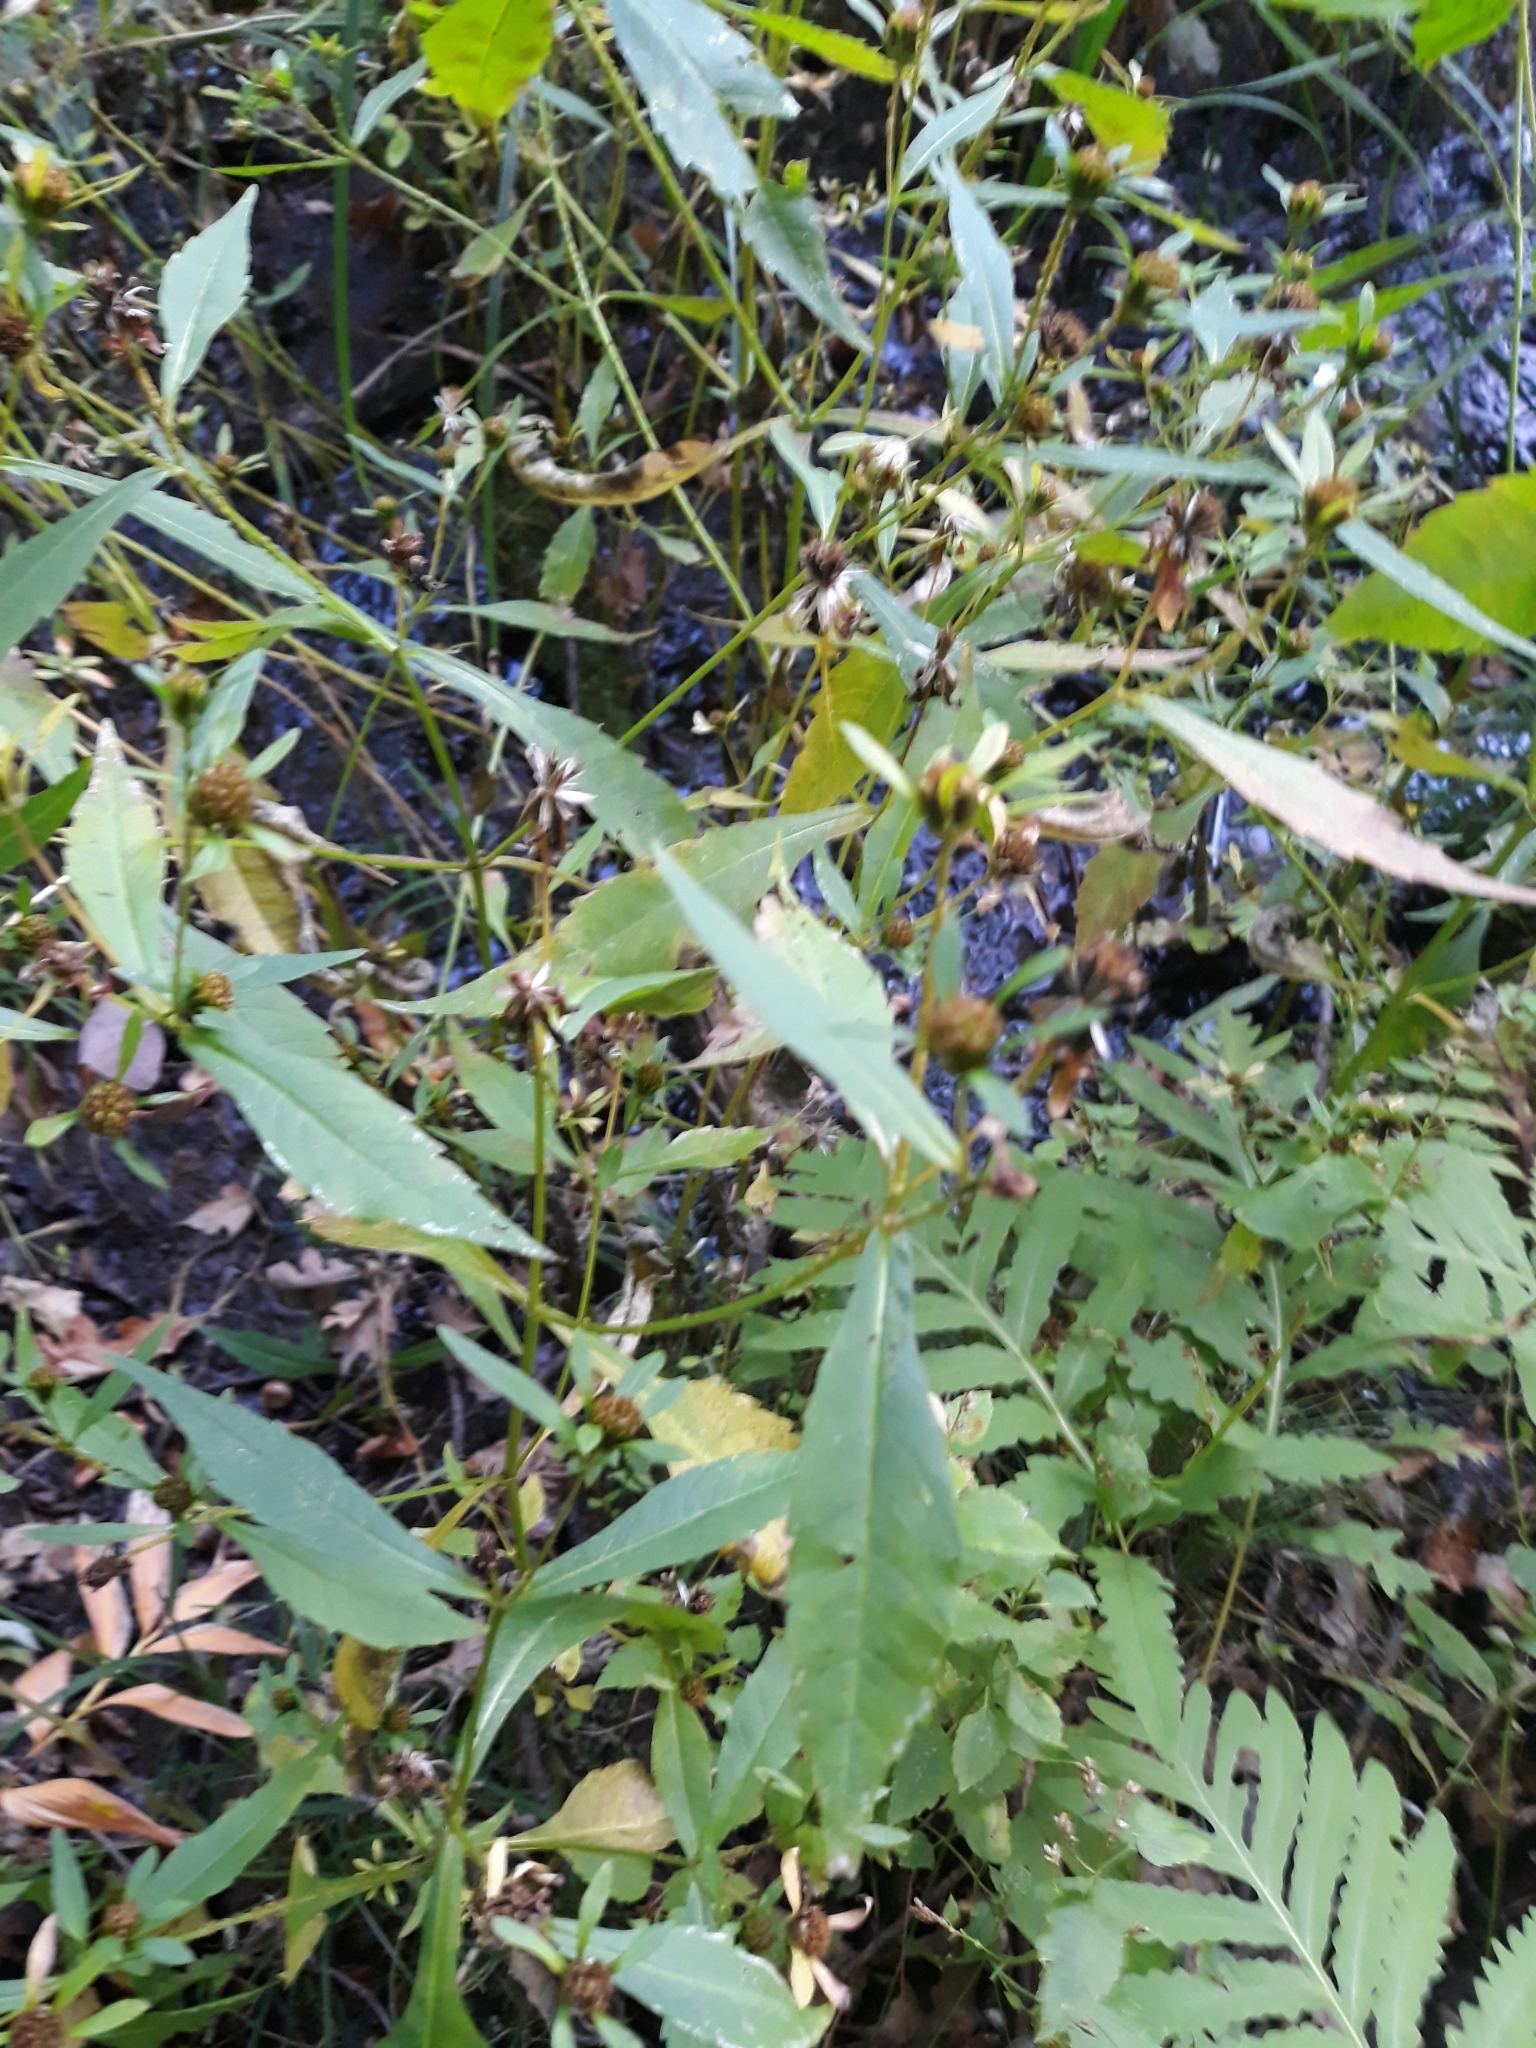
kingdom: Plantae
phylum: Tracheophyta
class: Magnoliopsida
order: Asterales
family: Asteraceae
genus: Bidens
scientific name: Bidens frondosa
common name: Beggarticks
